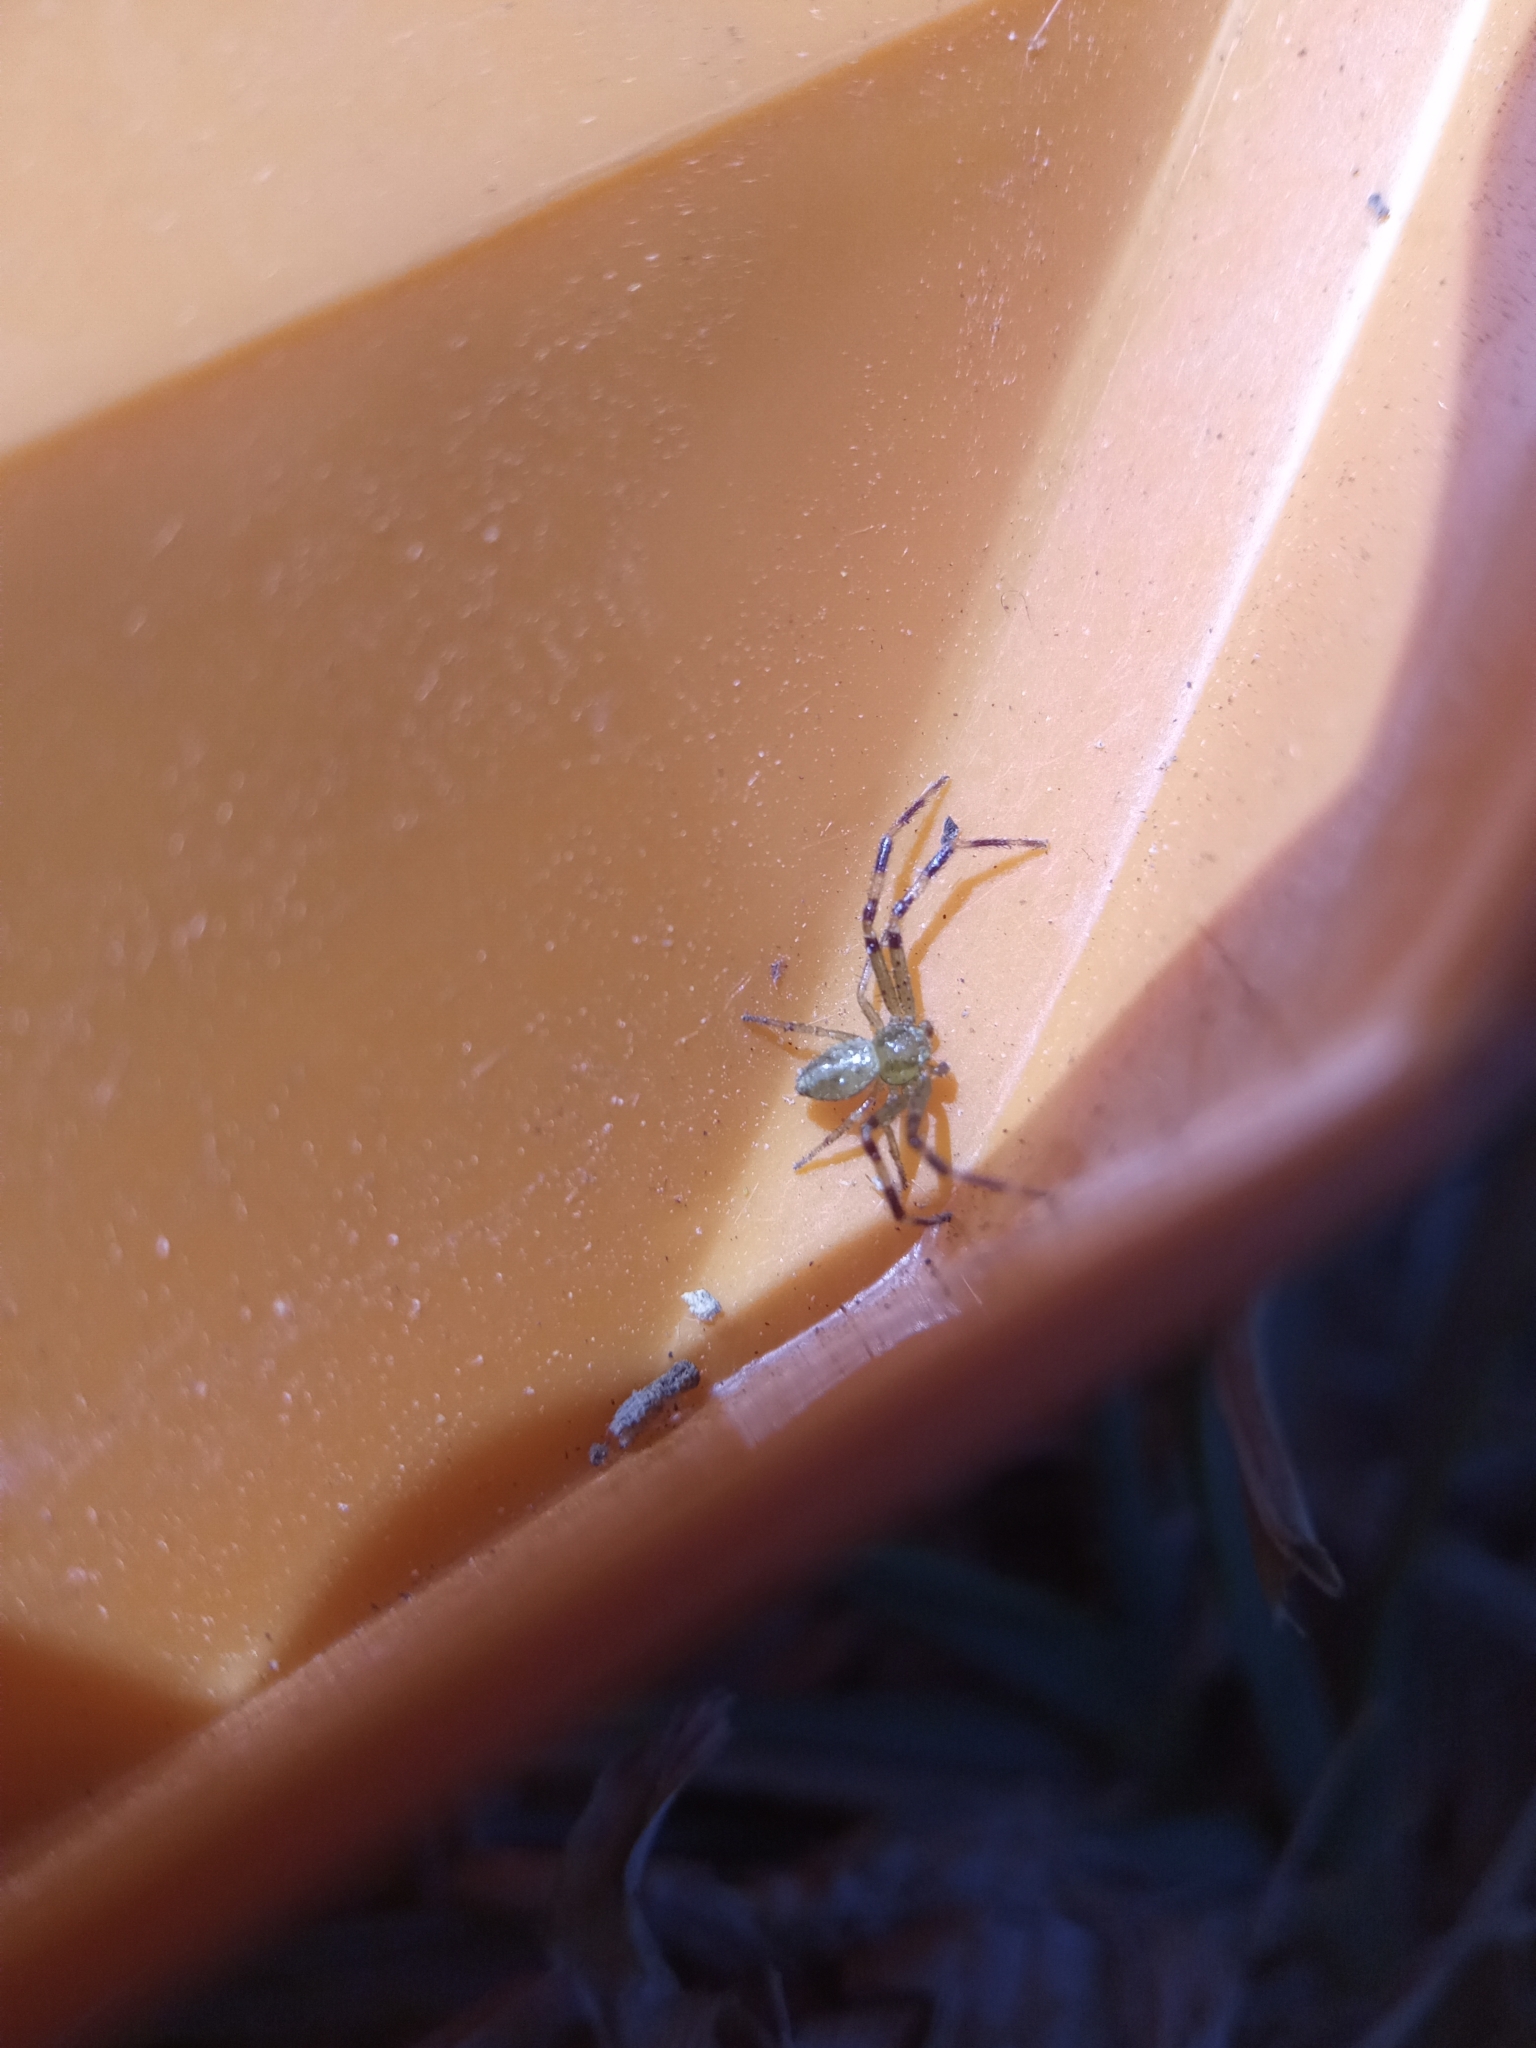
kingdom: Animalia
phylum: Arthropoda
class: Arachnida
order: Araneae
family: Thomisidae
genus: Misumenops
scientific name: Misumenops
